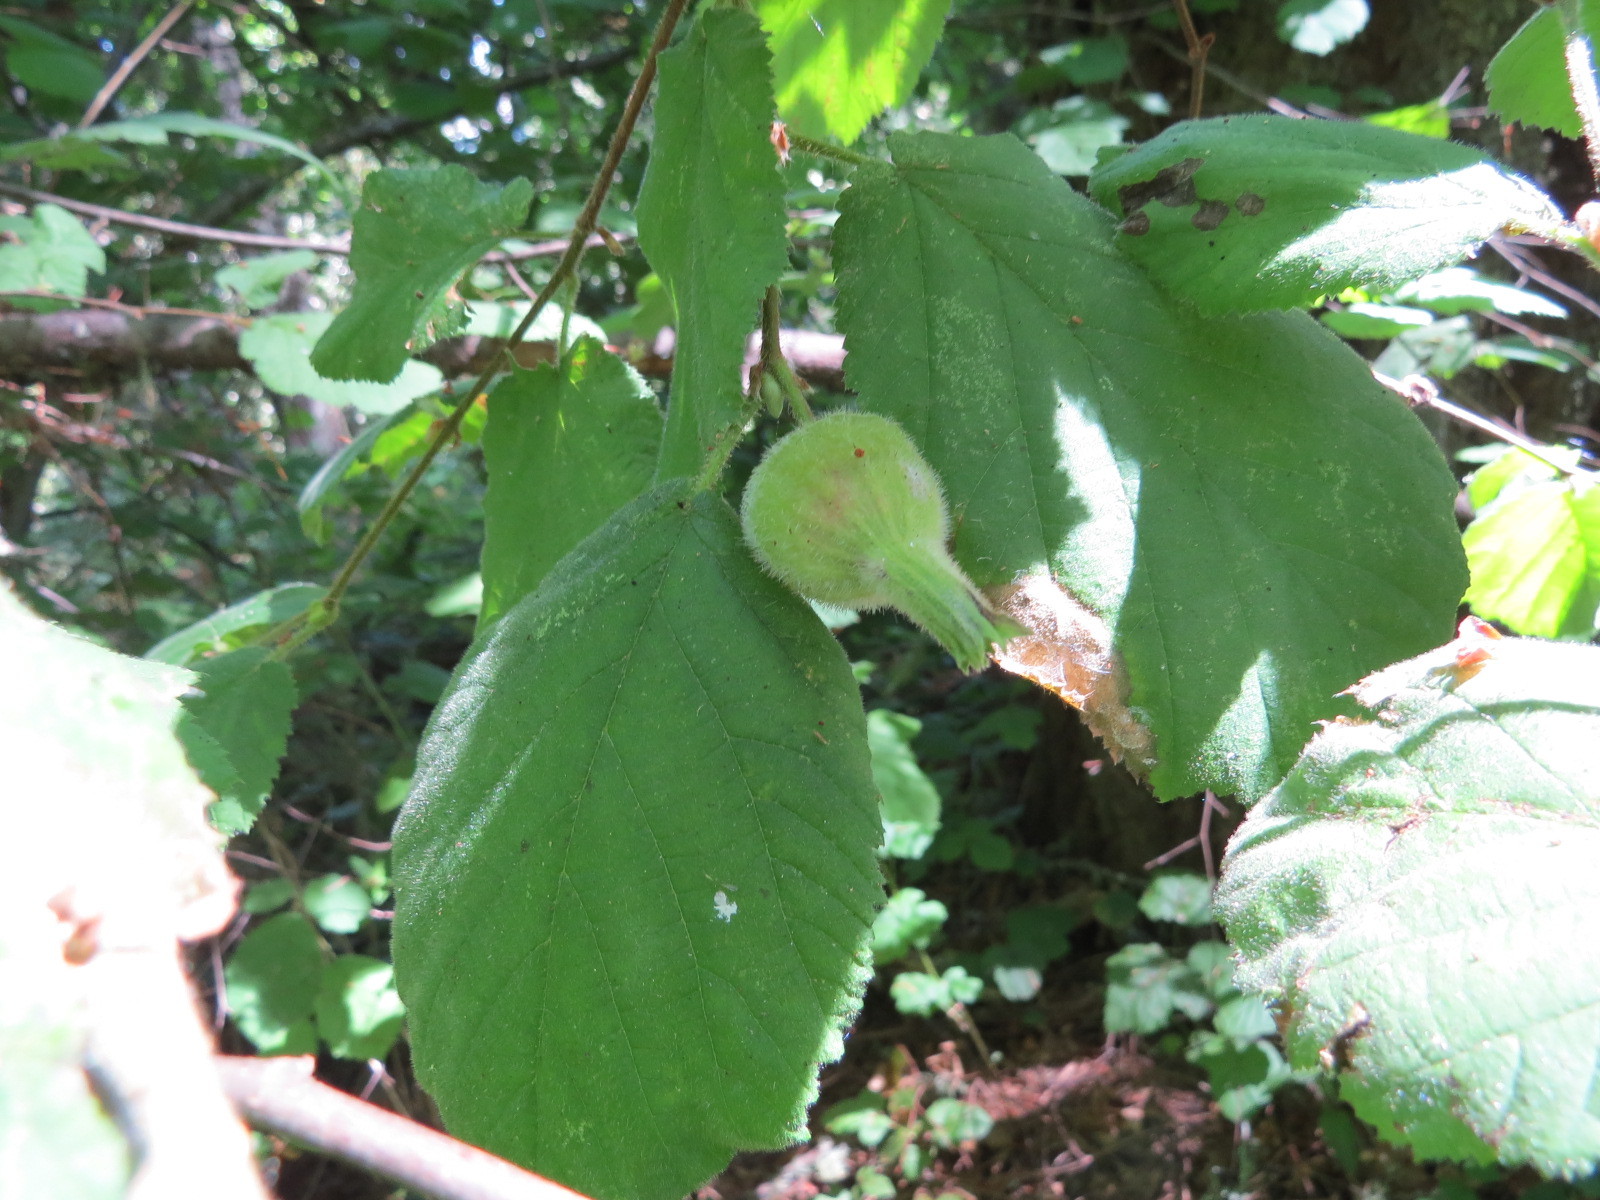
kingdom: Plantae
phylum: Tracheophyta
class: Magnoliopsida
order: Fagales
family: Betulaceae
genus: Corylus
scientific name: Corylus cornuta
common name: Beaked hazel
